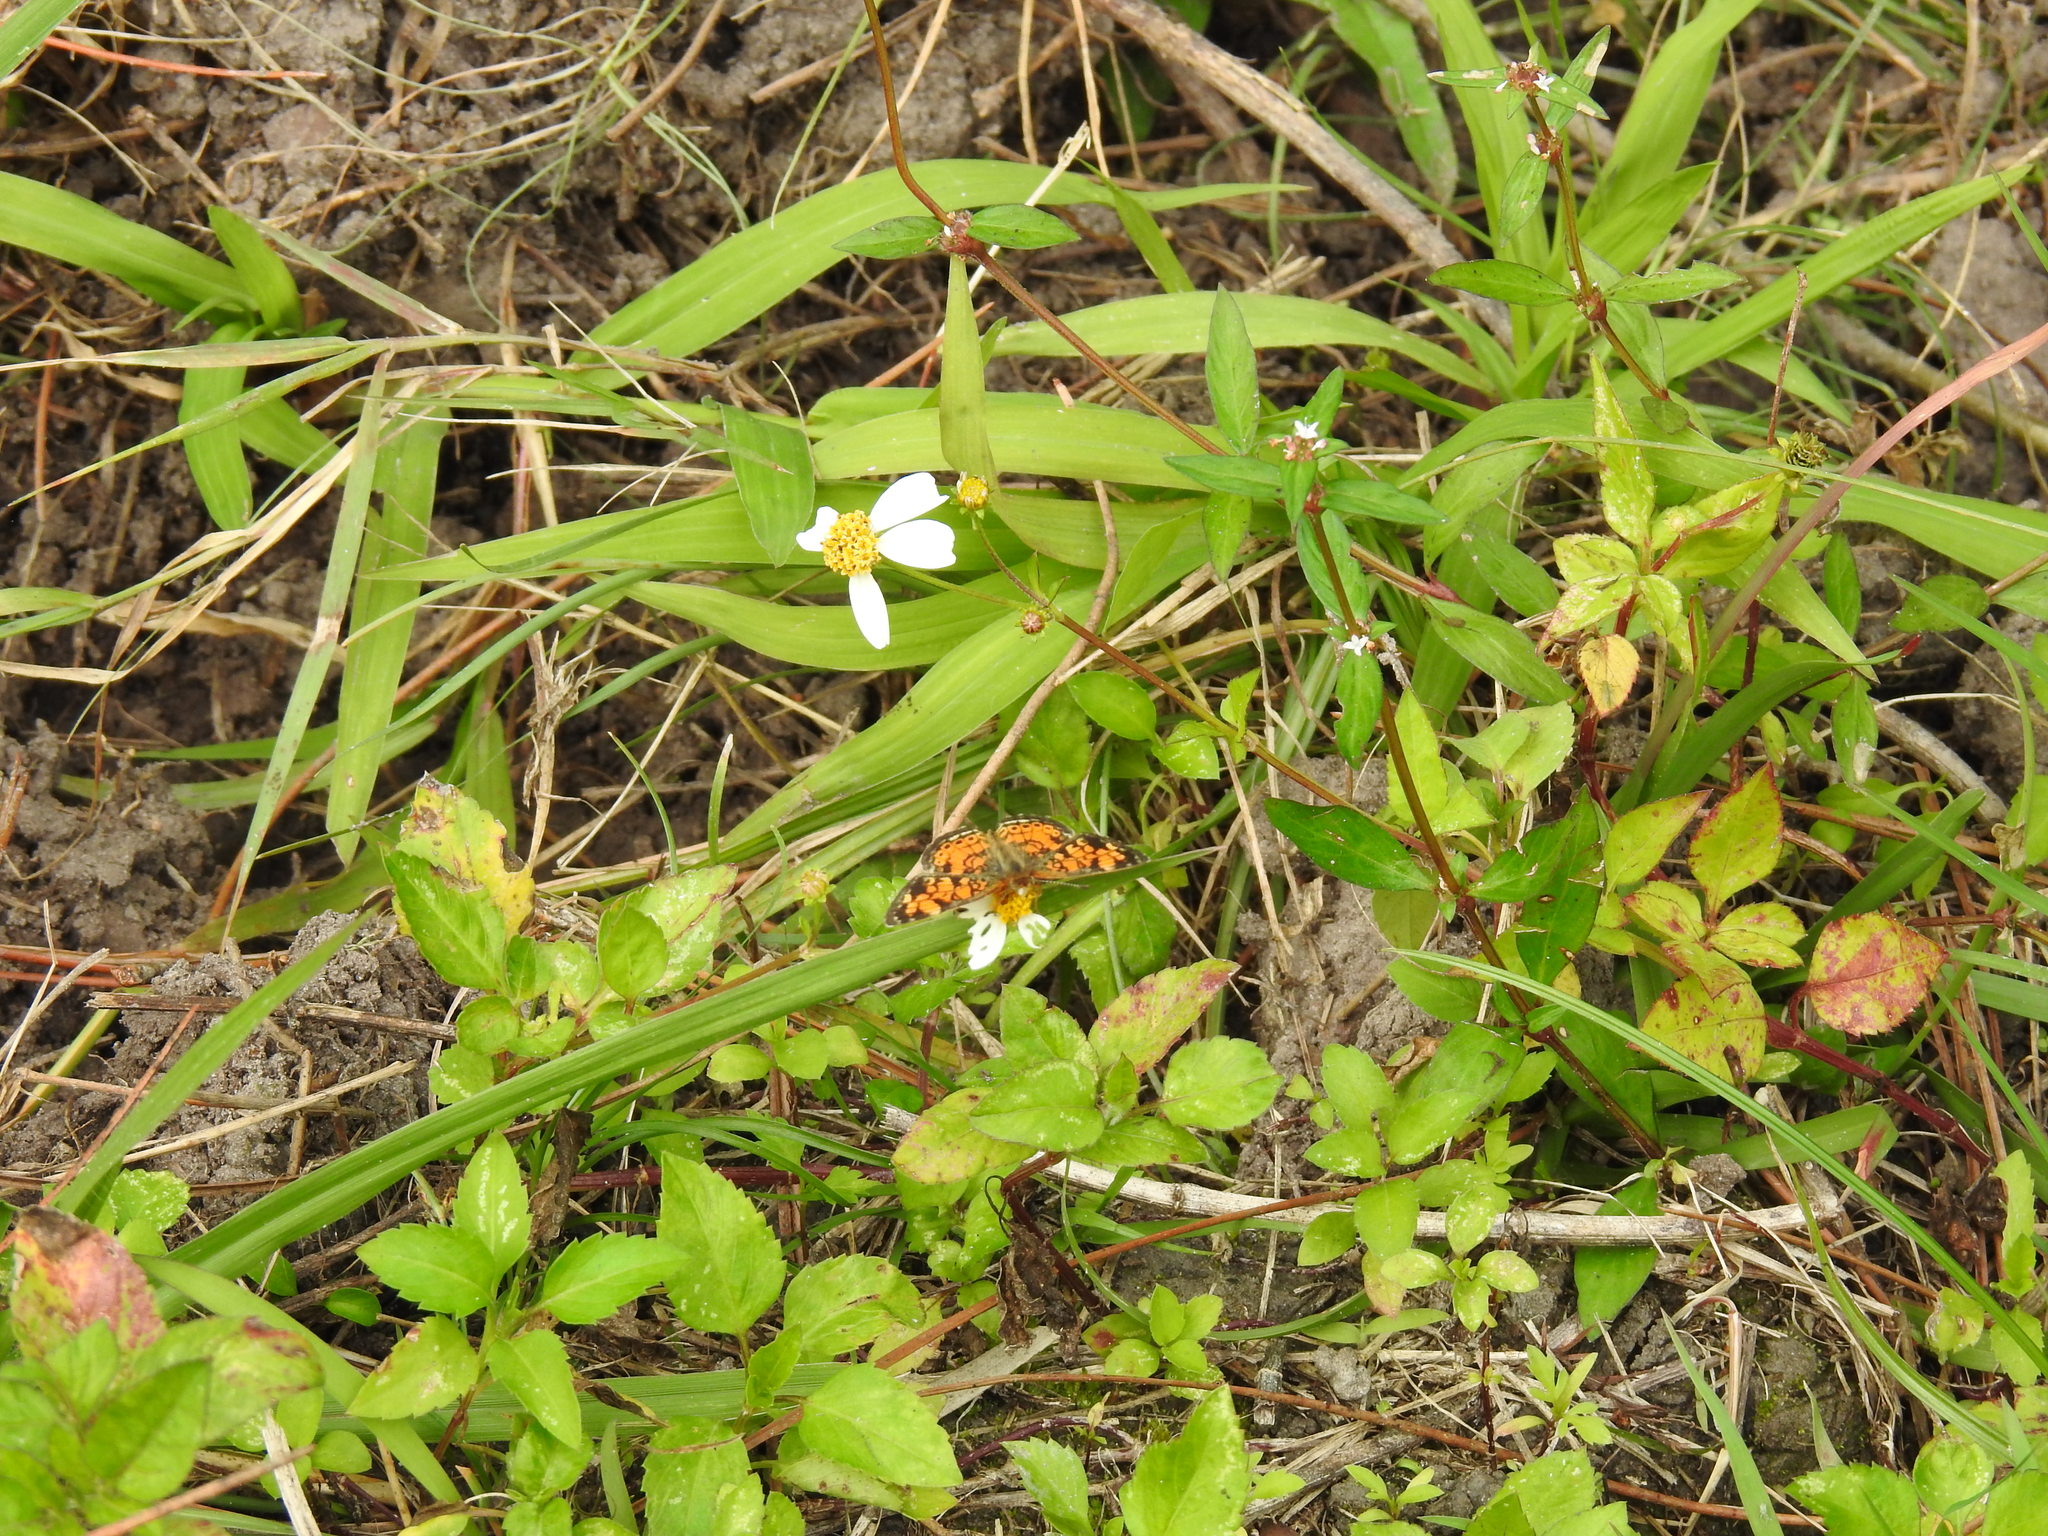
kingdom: Animalia
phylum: Arthropoda
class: Insecta
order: Lepidoptera
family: Nymphalidae
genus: Phyciodes
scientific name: Phyciodes tharos
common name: Pearl crescent
